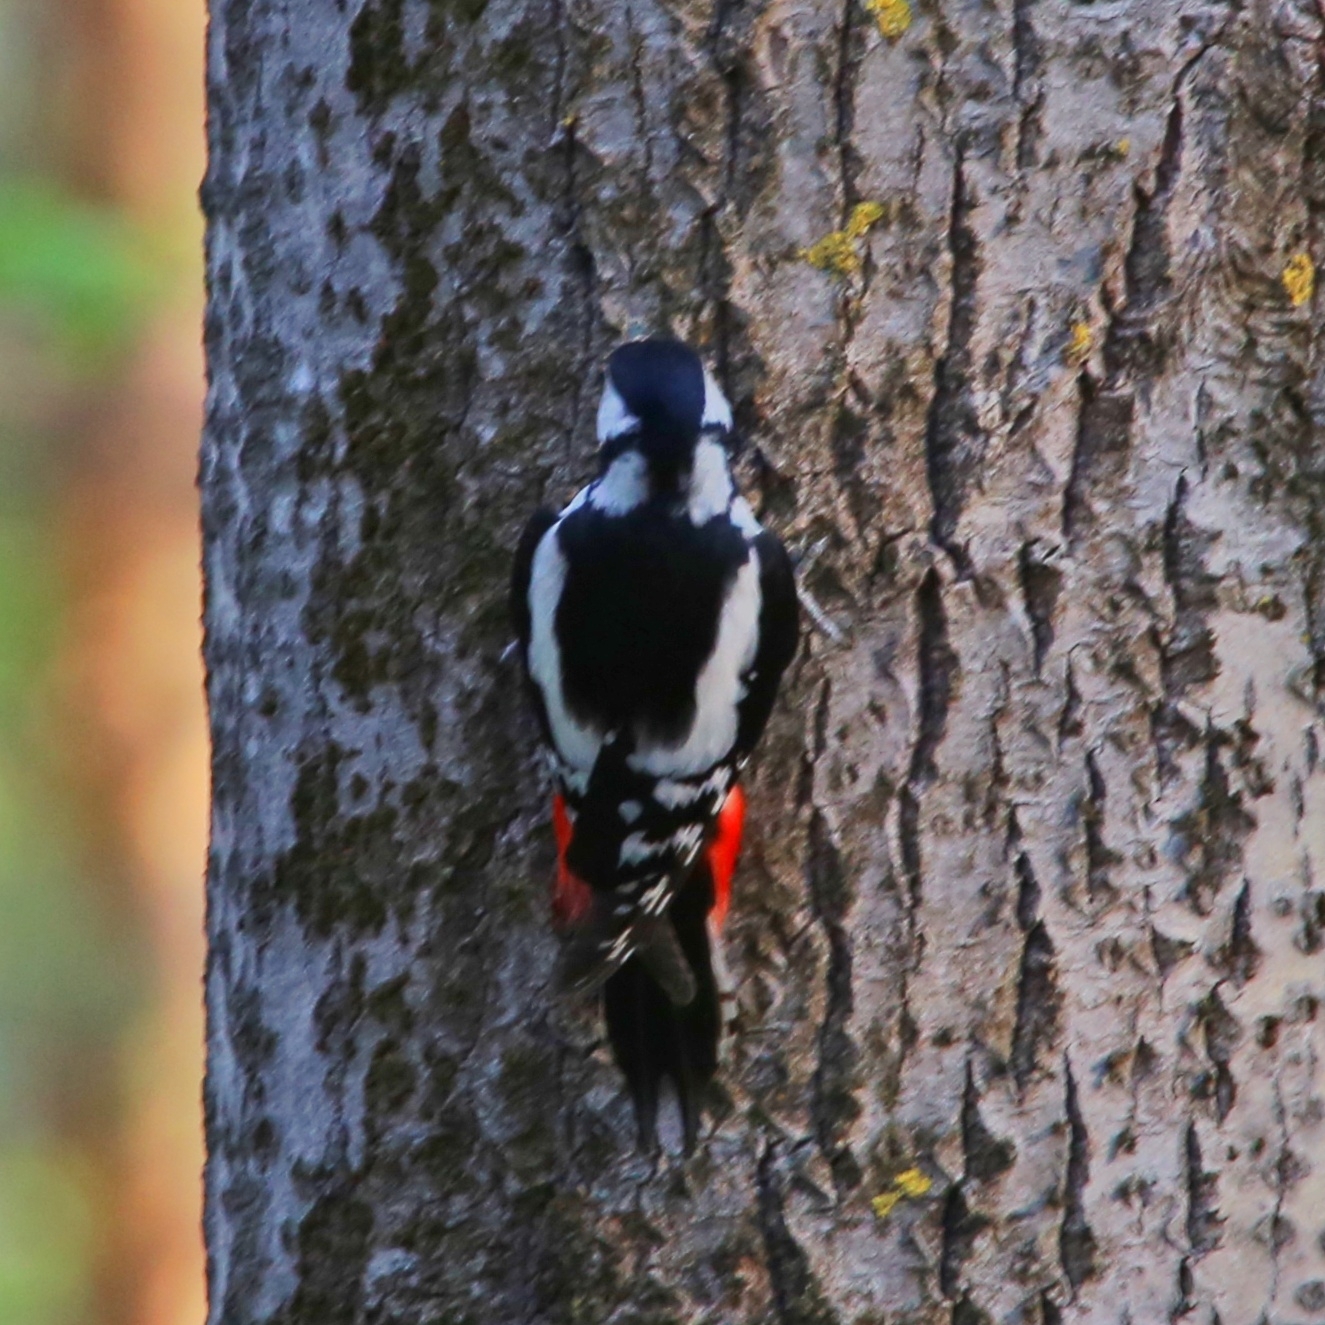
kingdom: Animalia
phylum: Chordata
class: Aves
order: Piciformes
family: Picidae
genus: Dendrocopos
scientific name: Dendrocopos major
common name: Great spotted woodpecker
